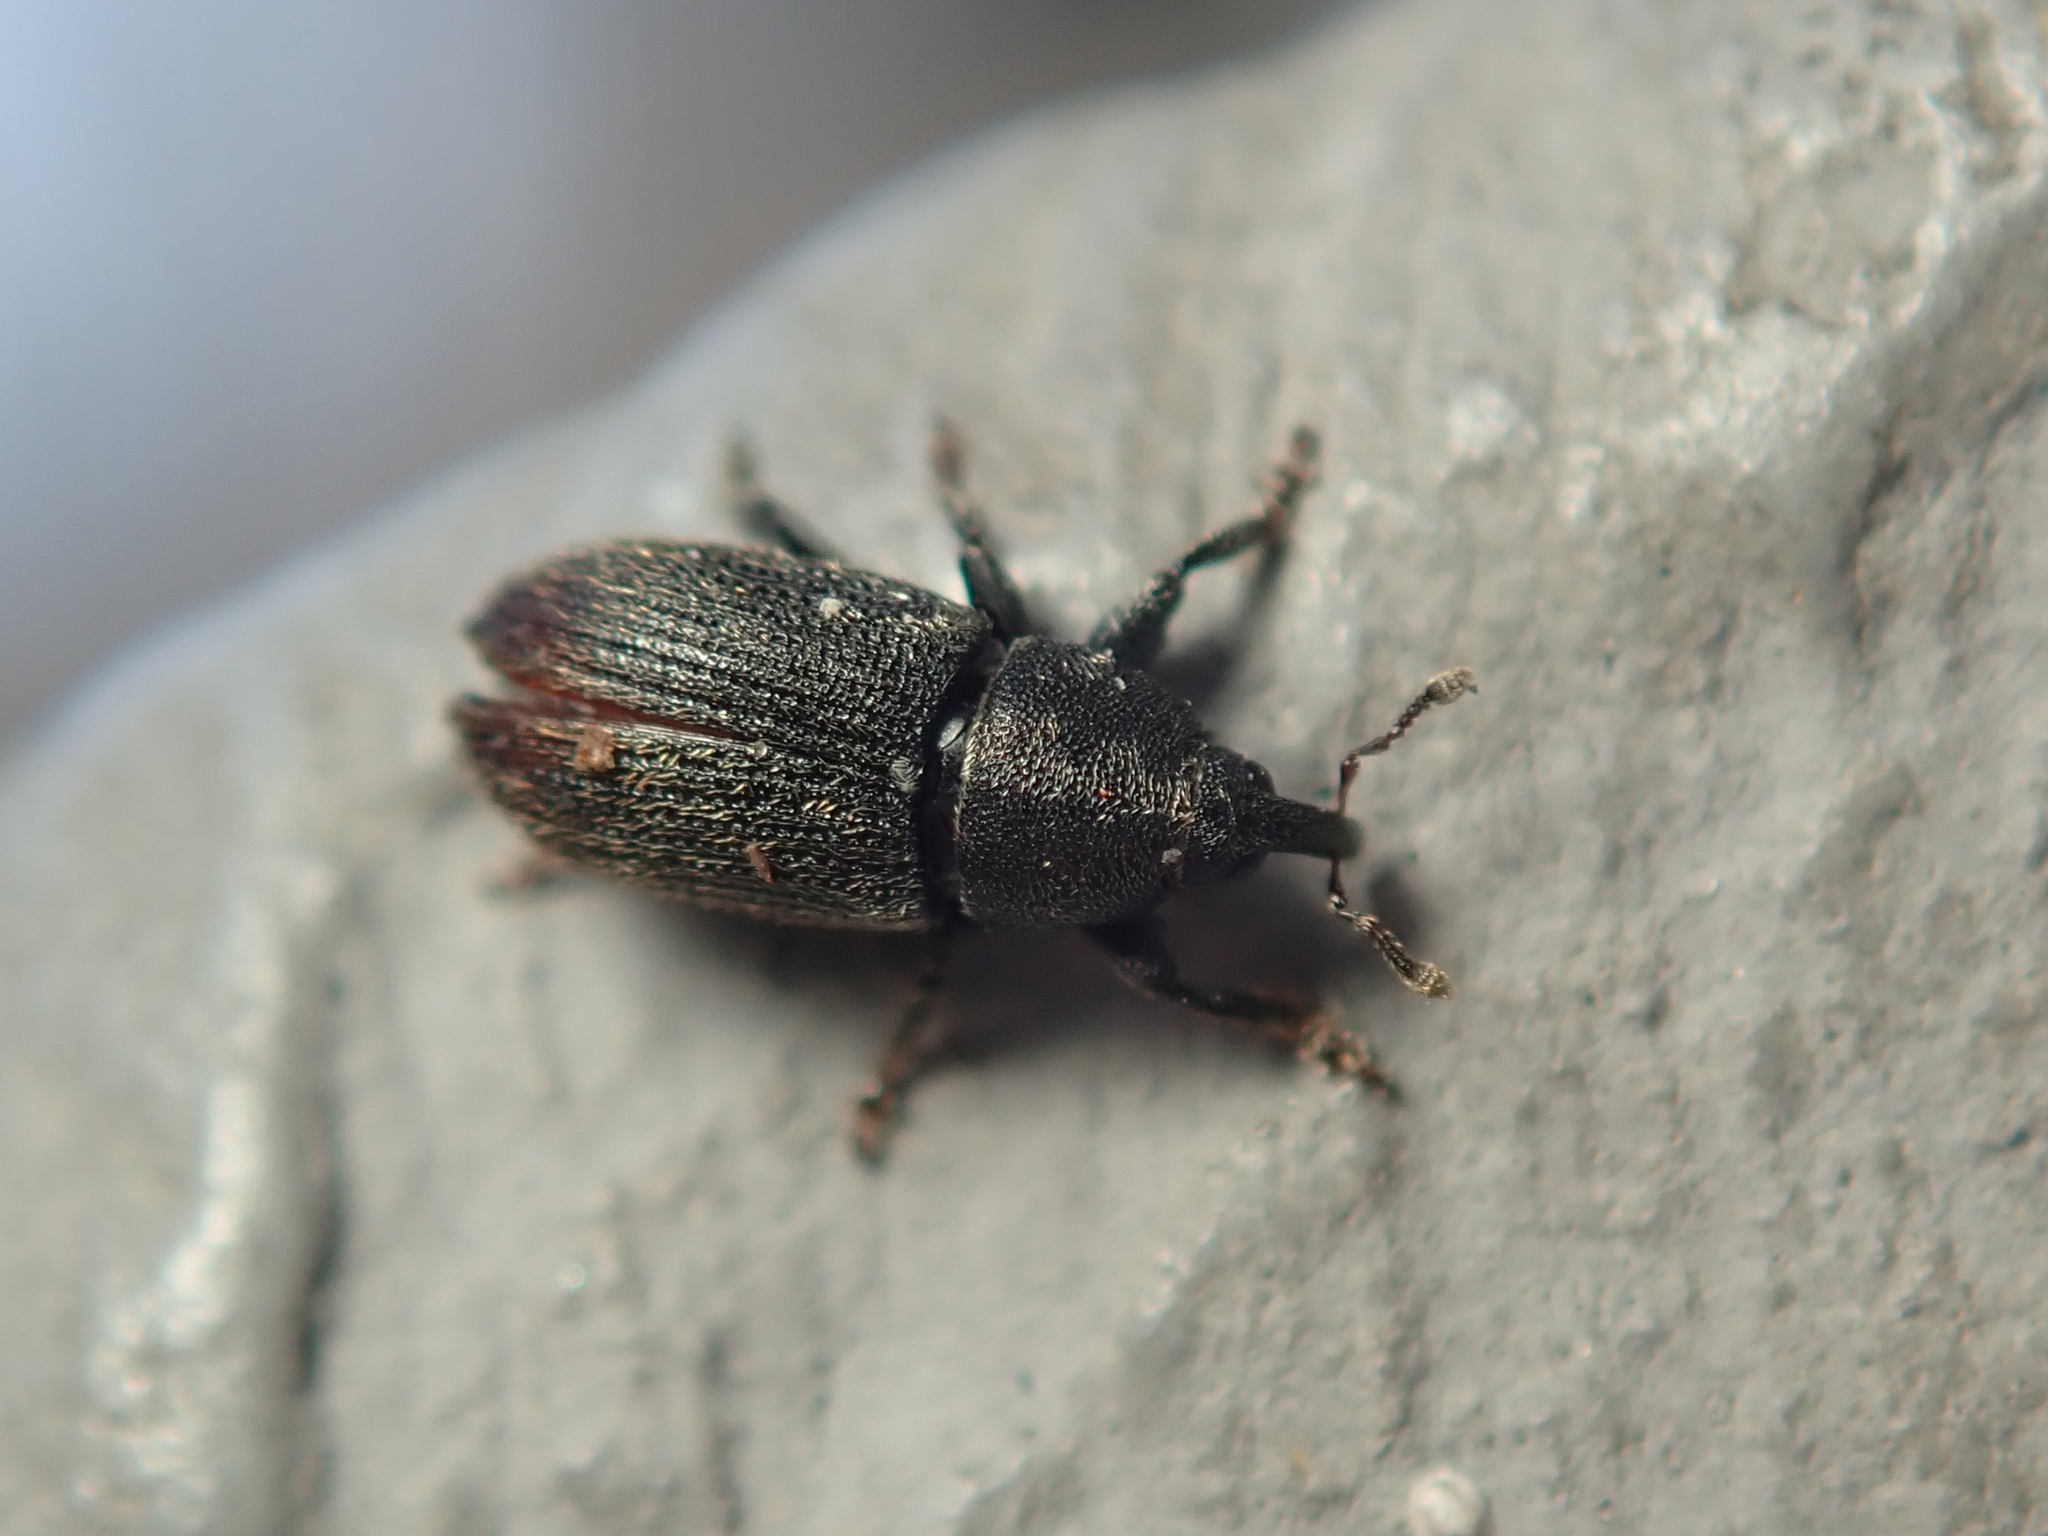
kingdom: Animalia
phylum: Arthropoda
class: Insecta
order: Coleoptera
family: Curculionidae
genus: Mecinus
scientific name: Mecinus pyraster
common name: Weevil
